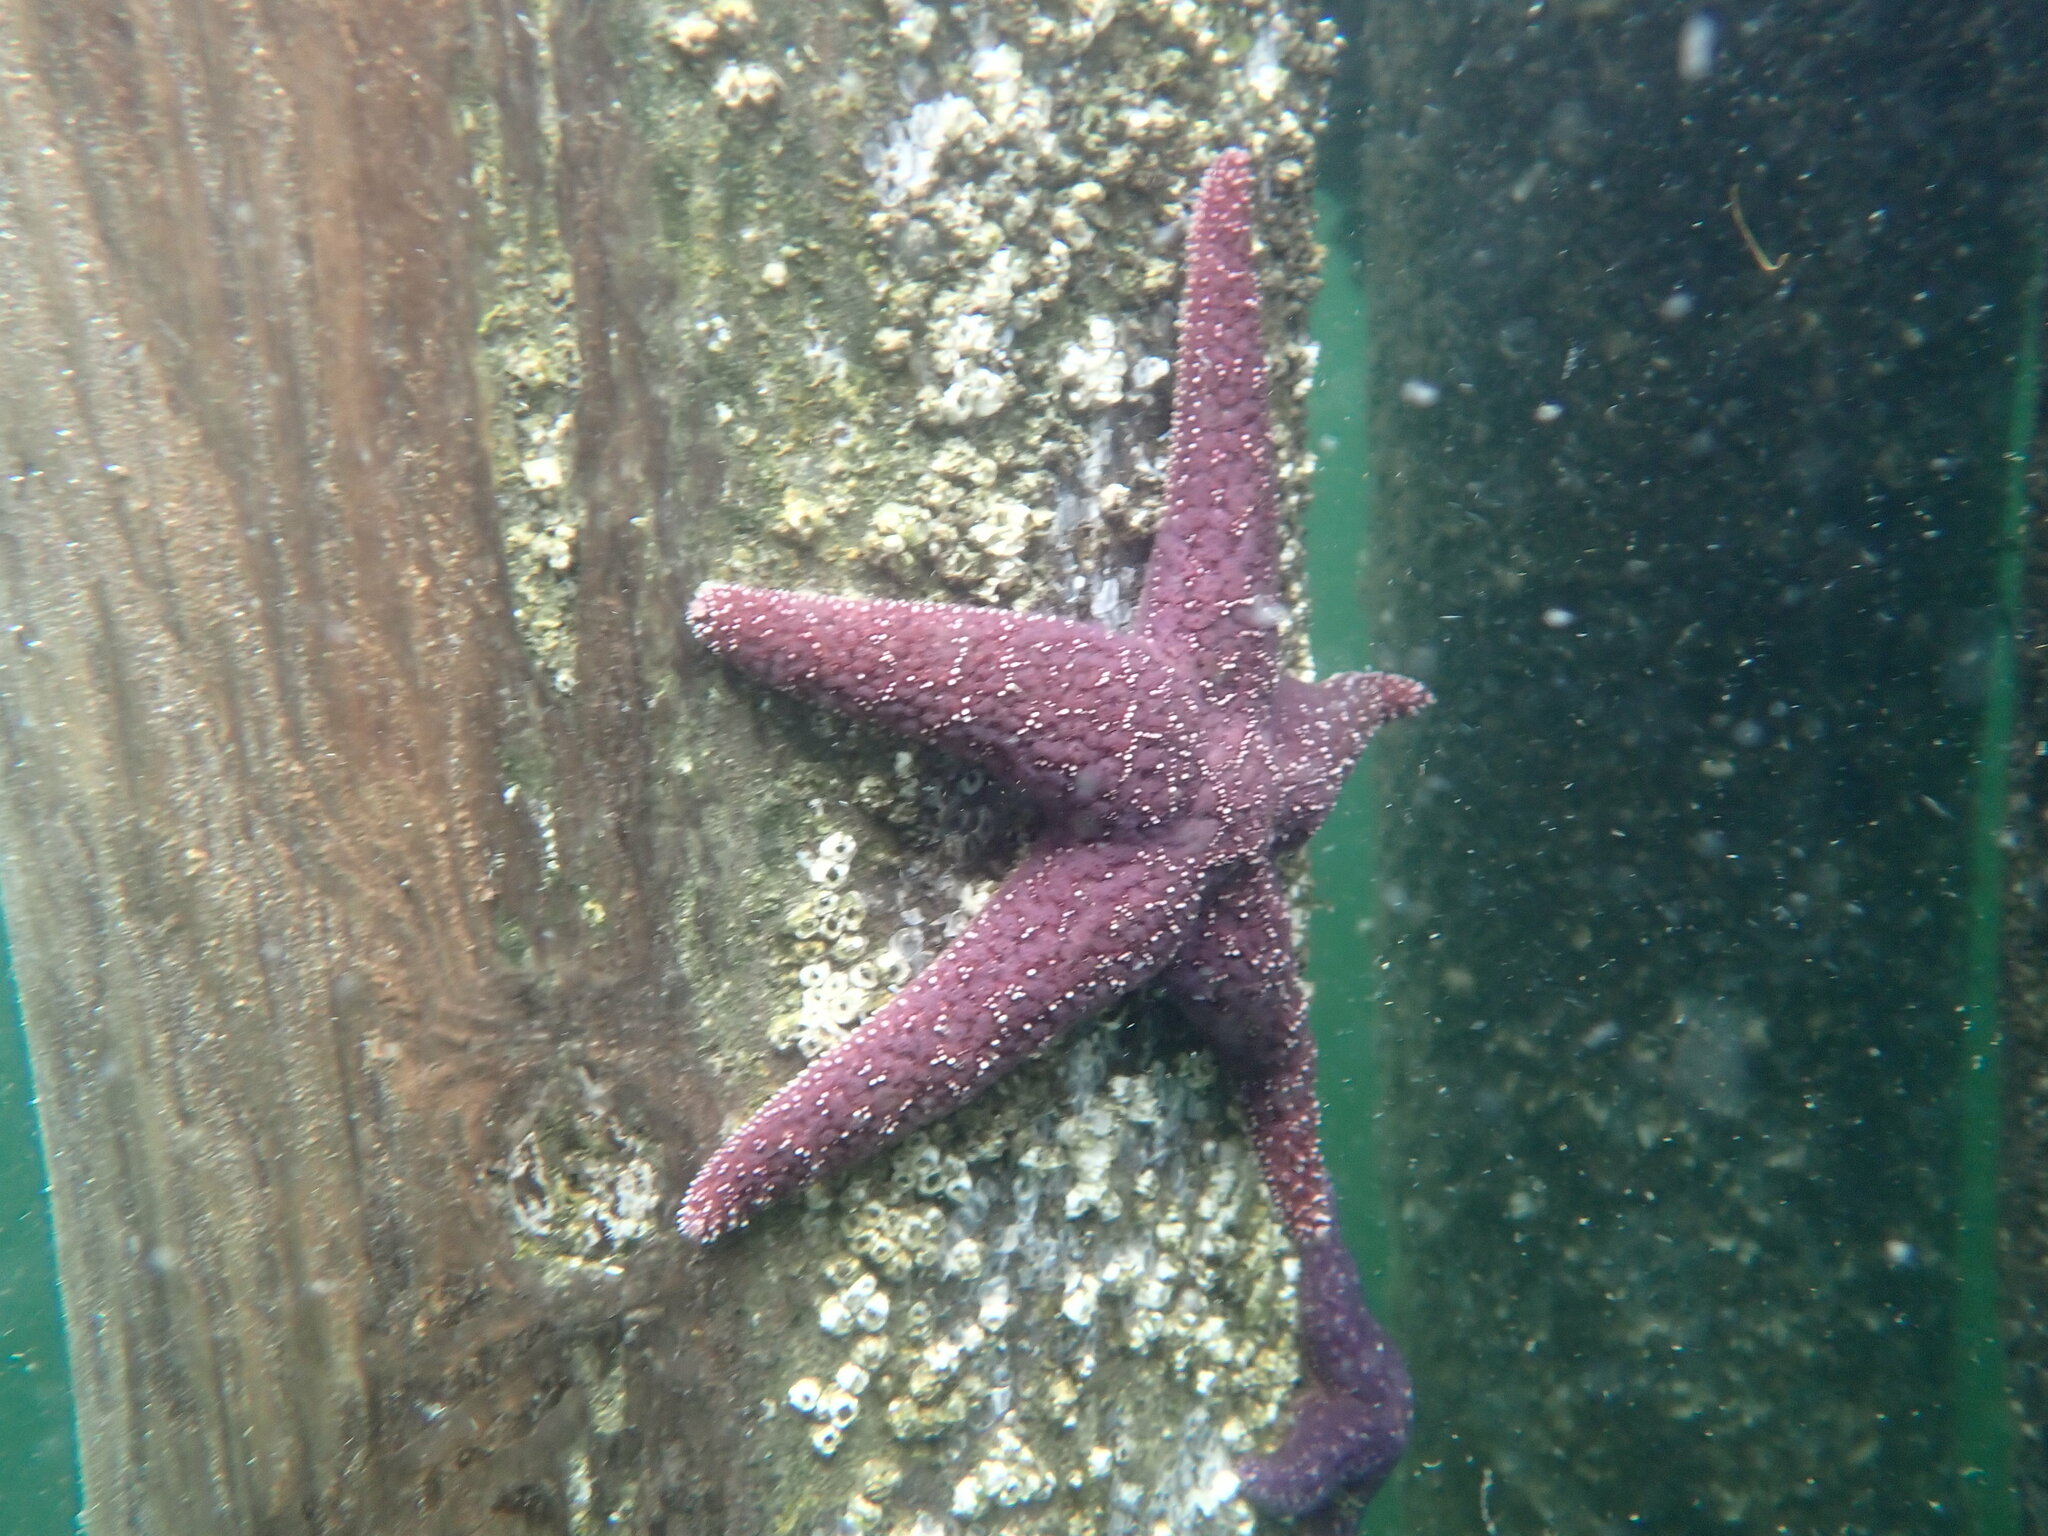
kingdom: Animalia
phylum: Echinodermata
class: Asteroidea
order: Forcipulatida
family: Asteriidae
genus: Pisaster
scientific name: Pisaster ochraceus
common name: Ochre stars
